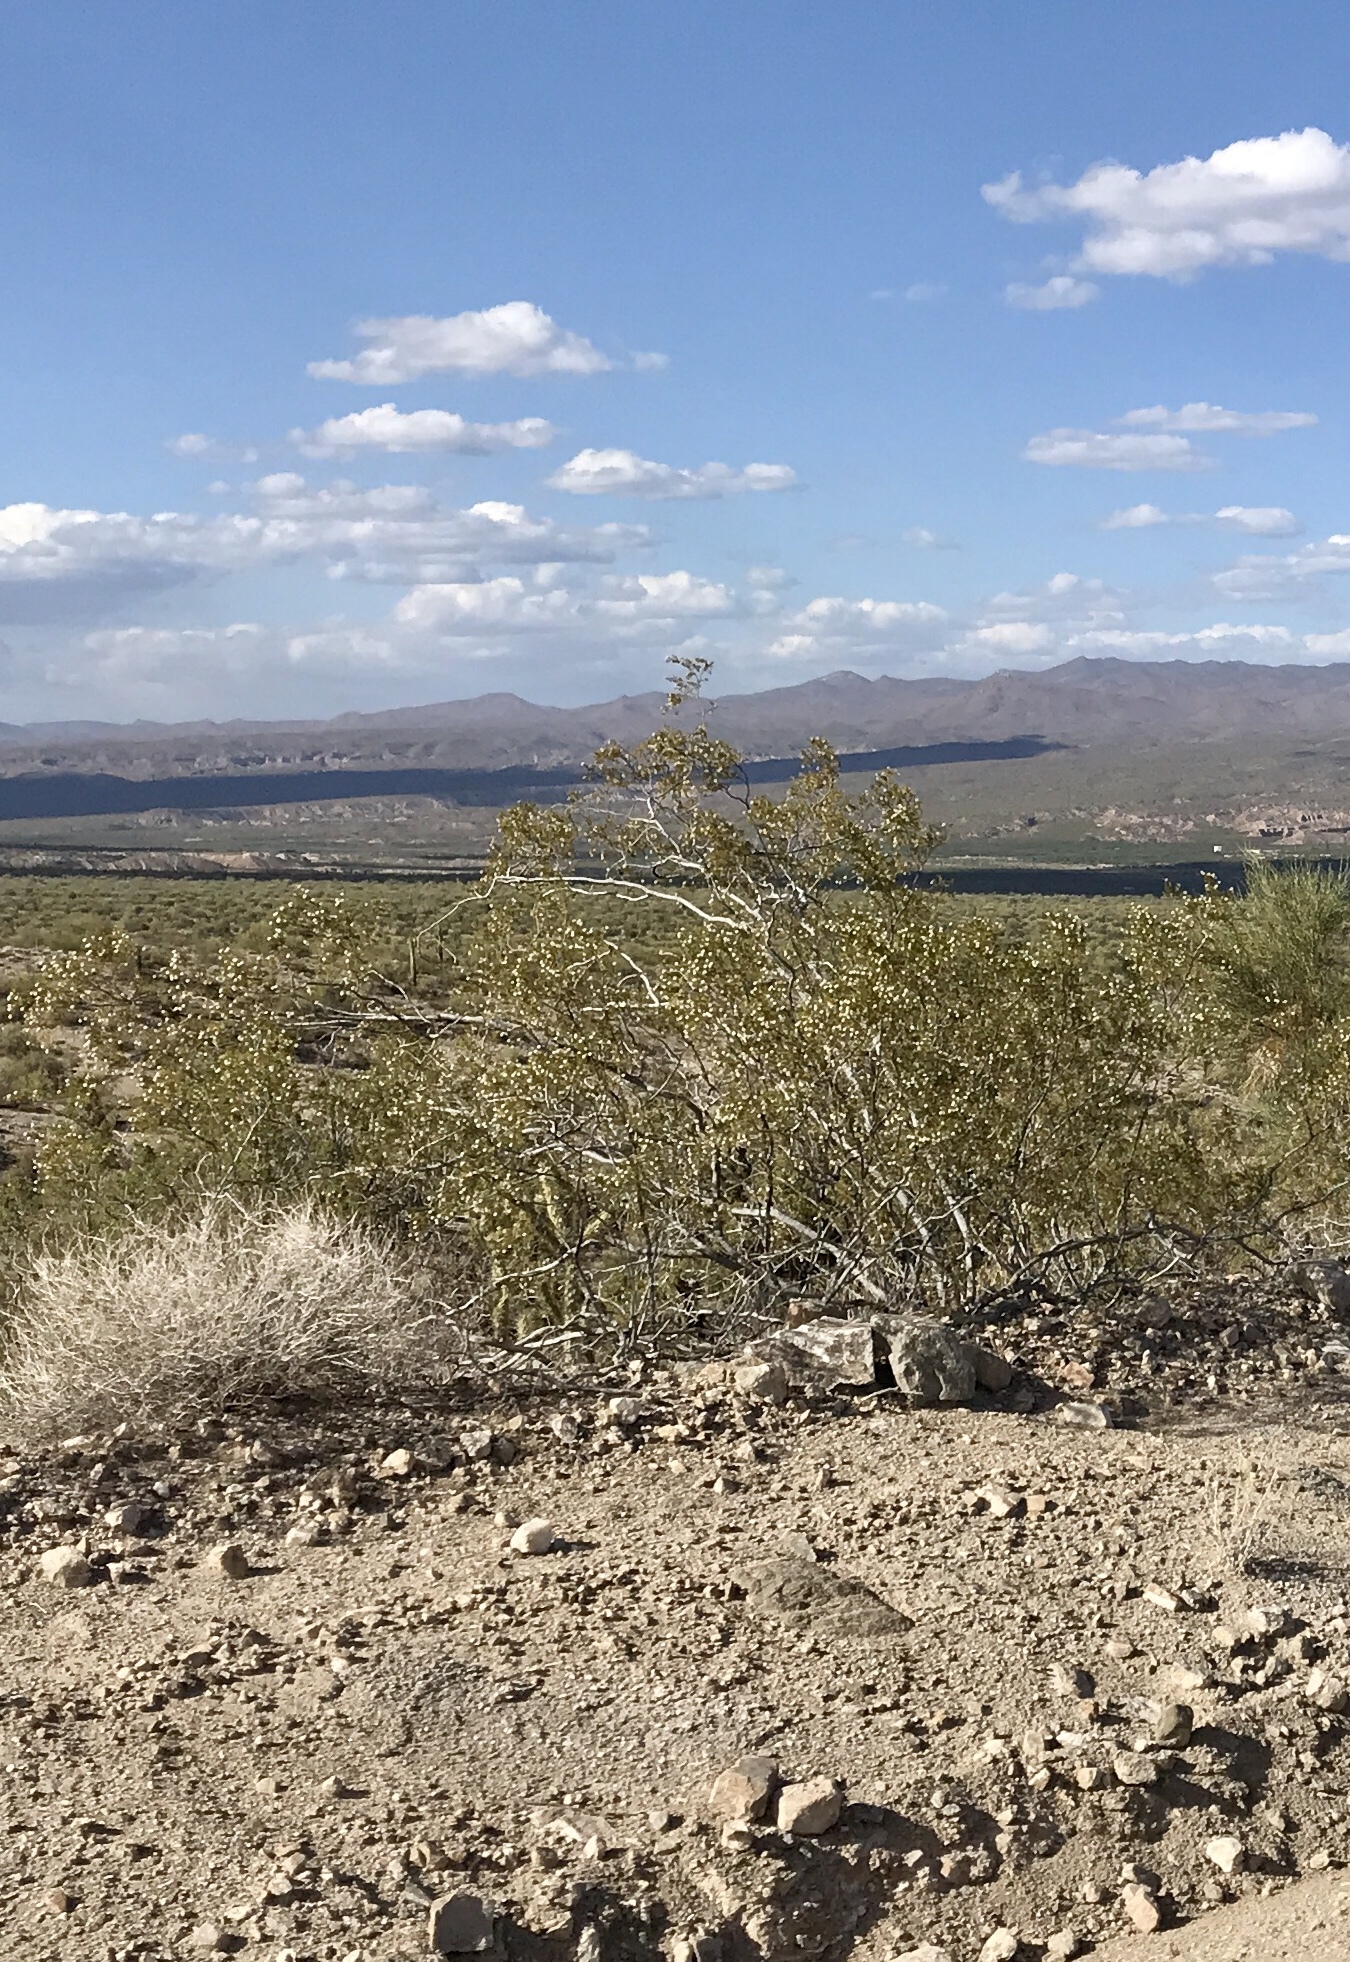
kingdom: Plantae
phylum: Tracheophyta
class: Magnoliopsida
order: Zygophyllales
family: Zygophyllaceae
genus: Larrea
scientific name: Larrea tridentata
